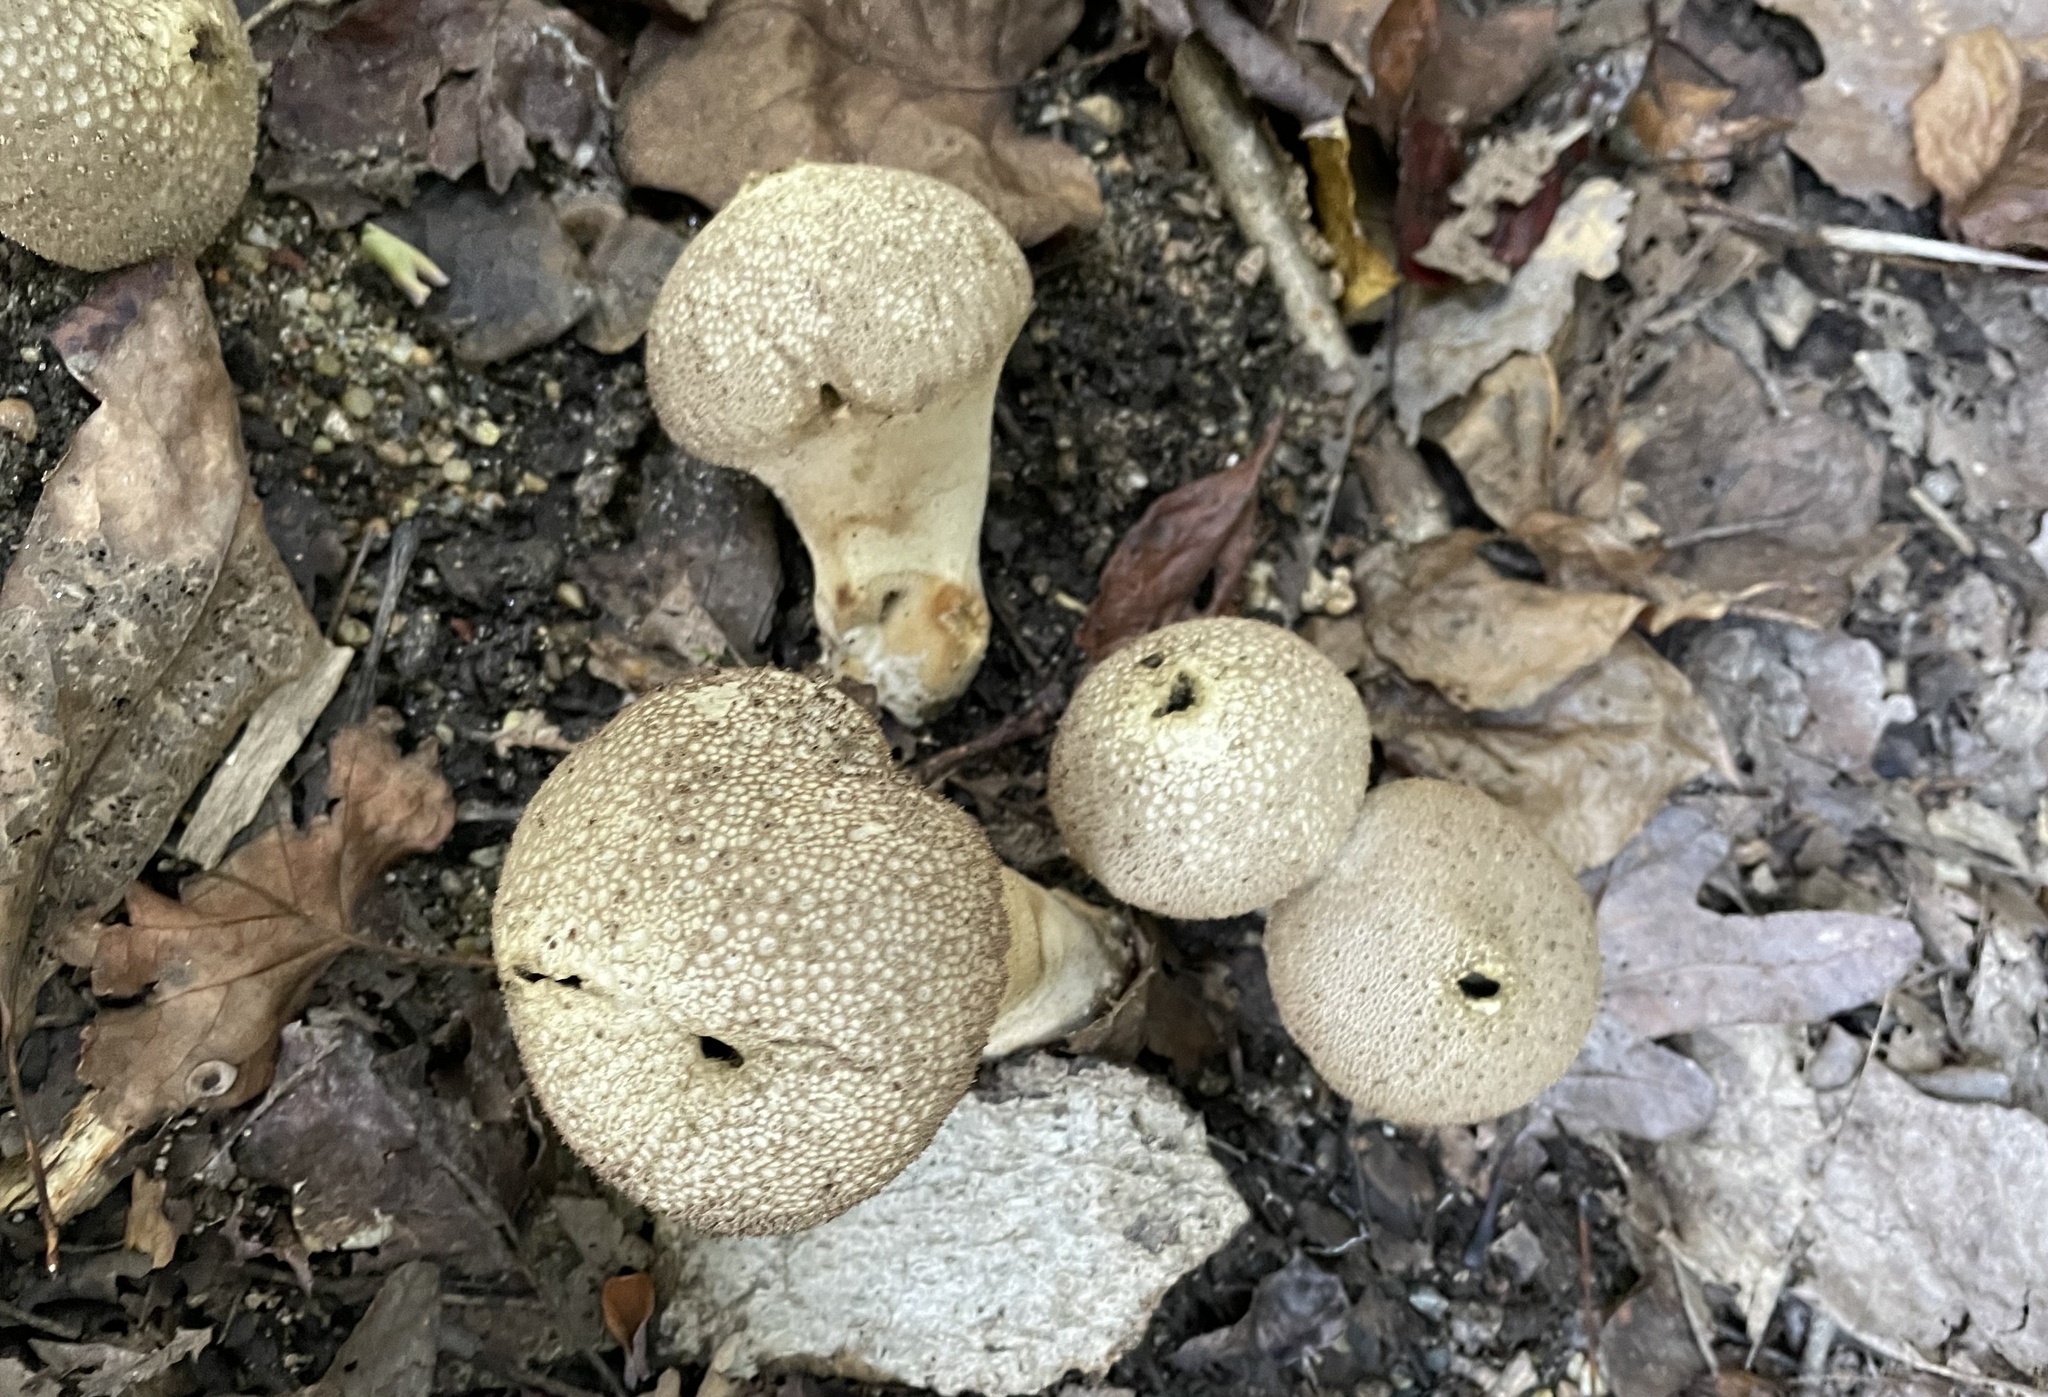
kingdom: Fungi
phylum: Basidiomycota
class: Agaricomycetes
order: Agaricales
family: Lycoperdaceae
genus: Lycoperdon
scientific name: Lycoperdon perlatum
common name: Common puffball
